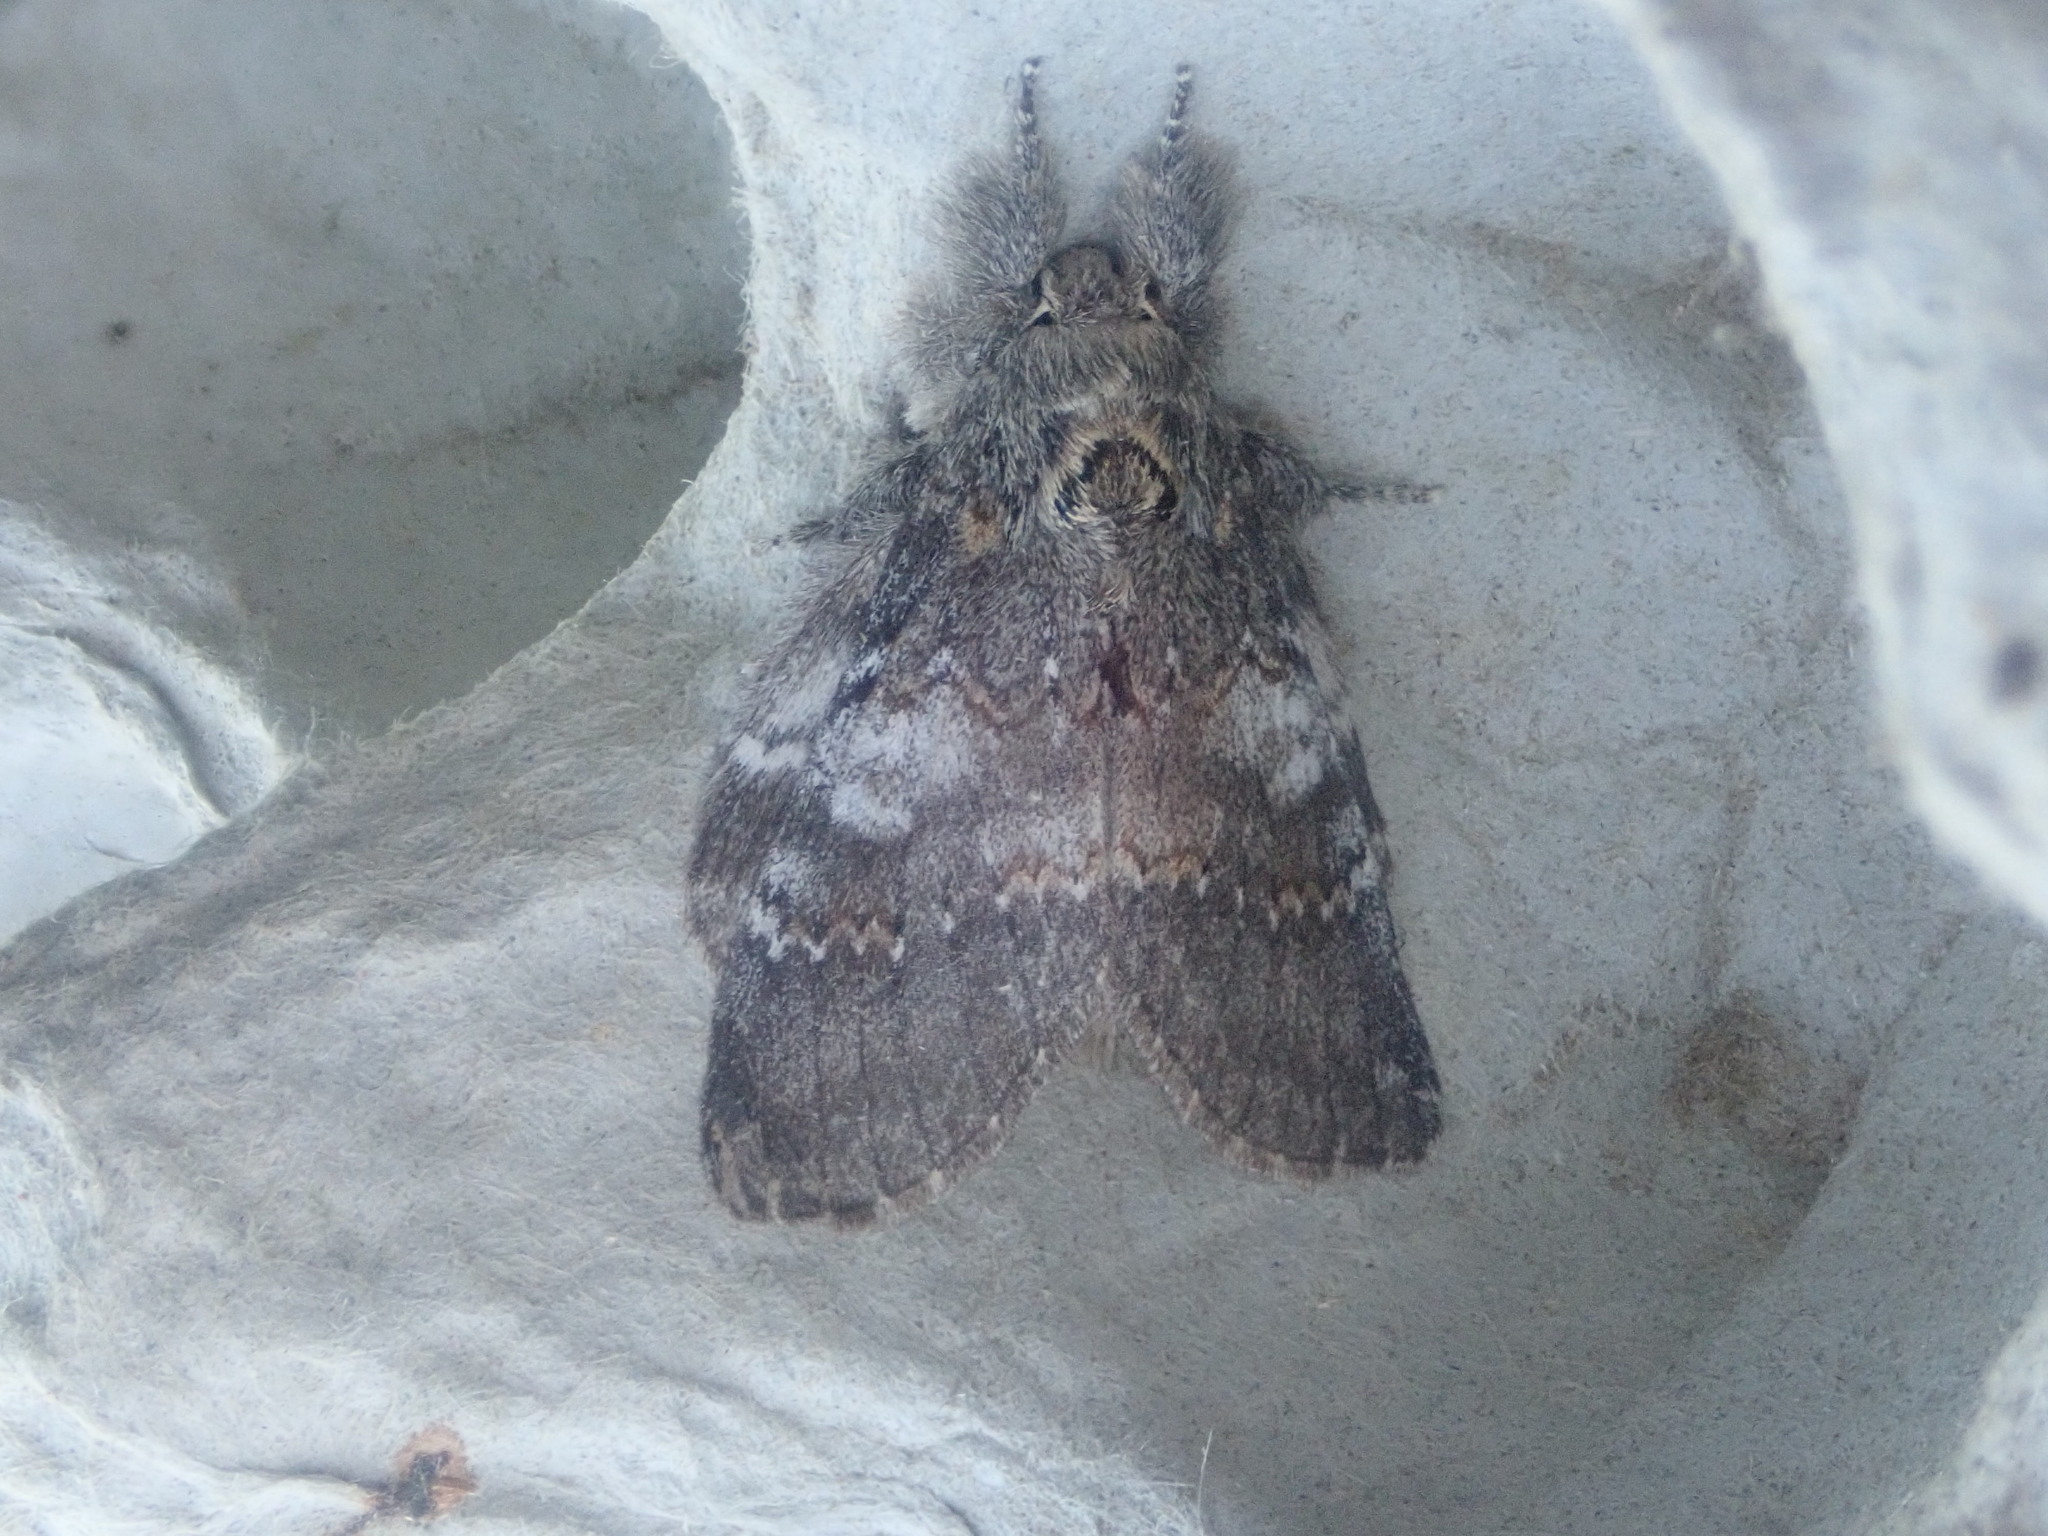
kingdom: Animalia
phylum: Arthropoda
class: Insecta
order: Lepidoptera
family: Notodontidae
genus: Peridea
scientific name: Peridea angulosa
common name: Angulose prominent
